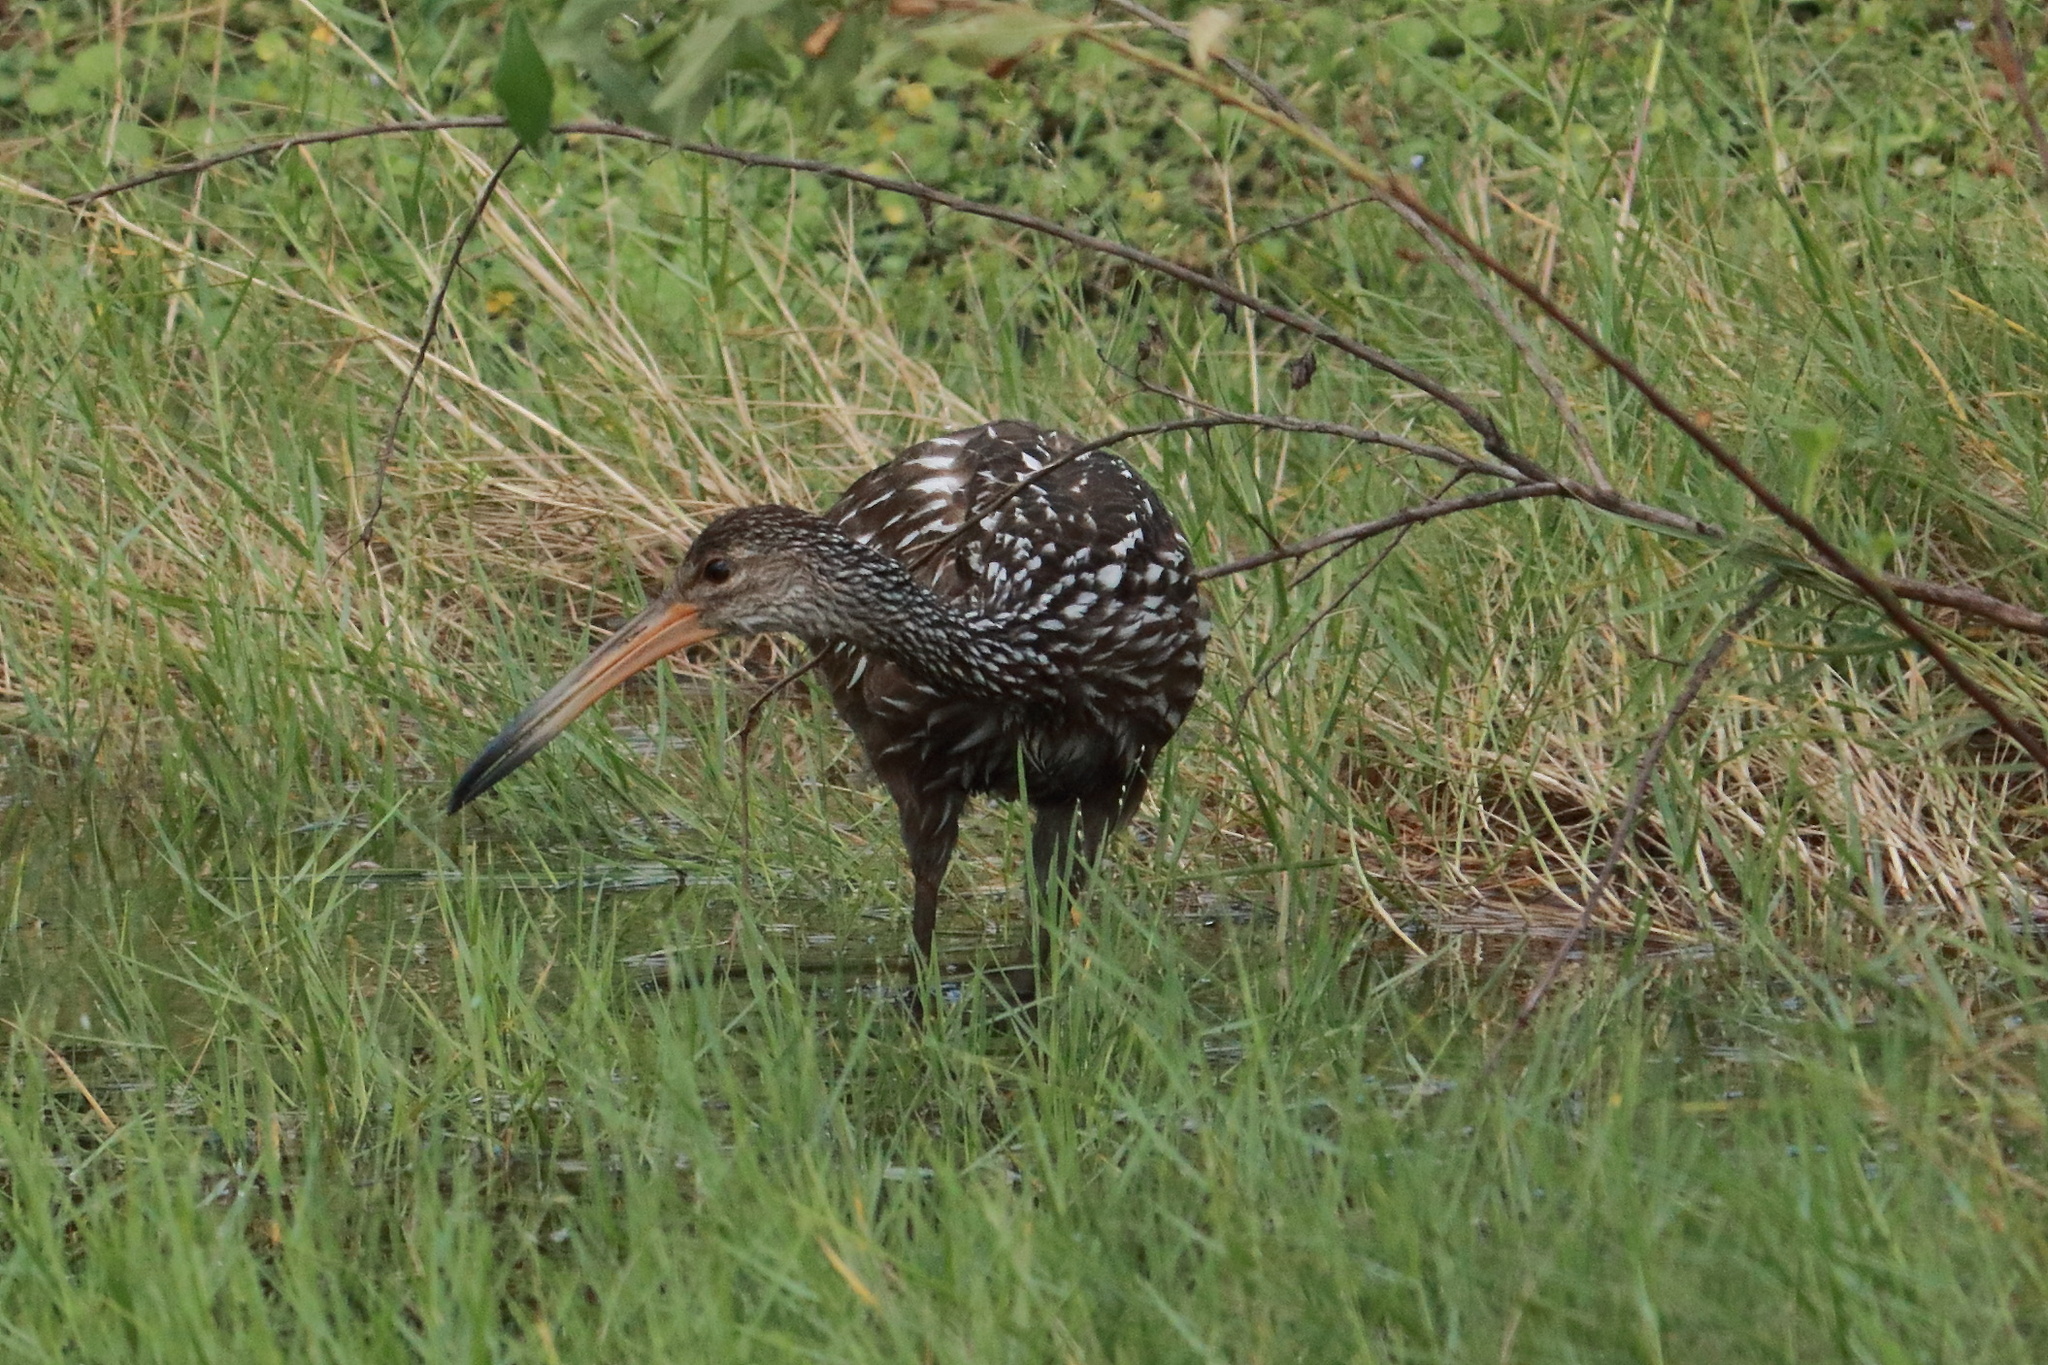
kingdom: Animalia
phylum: Chordata
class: Aves
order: Gruiformes
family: Aramidae
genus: Aramus
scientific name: Aramus guarauna
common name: Limpkin
